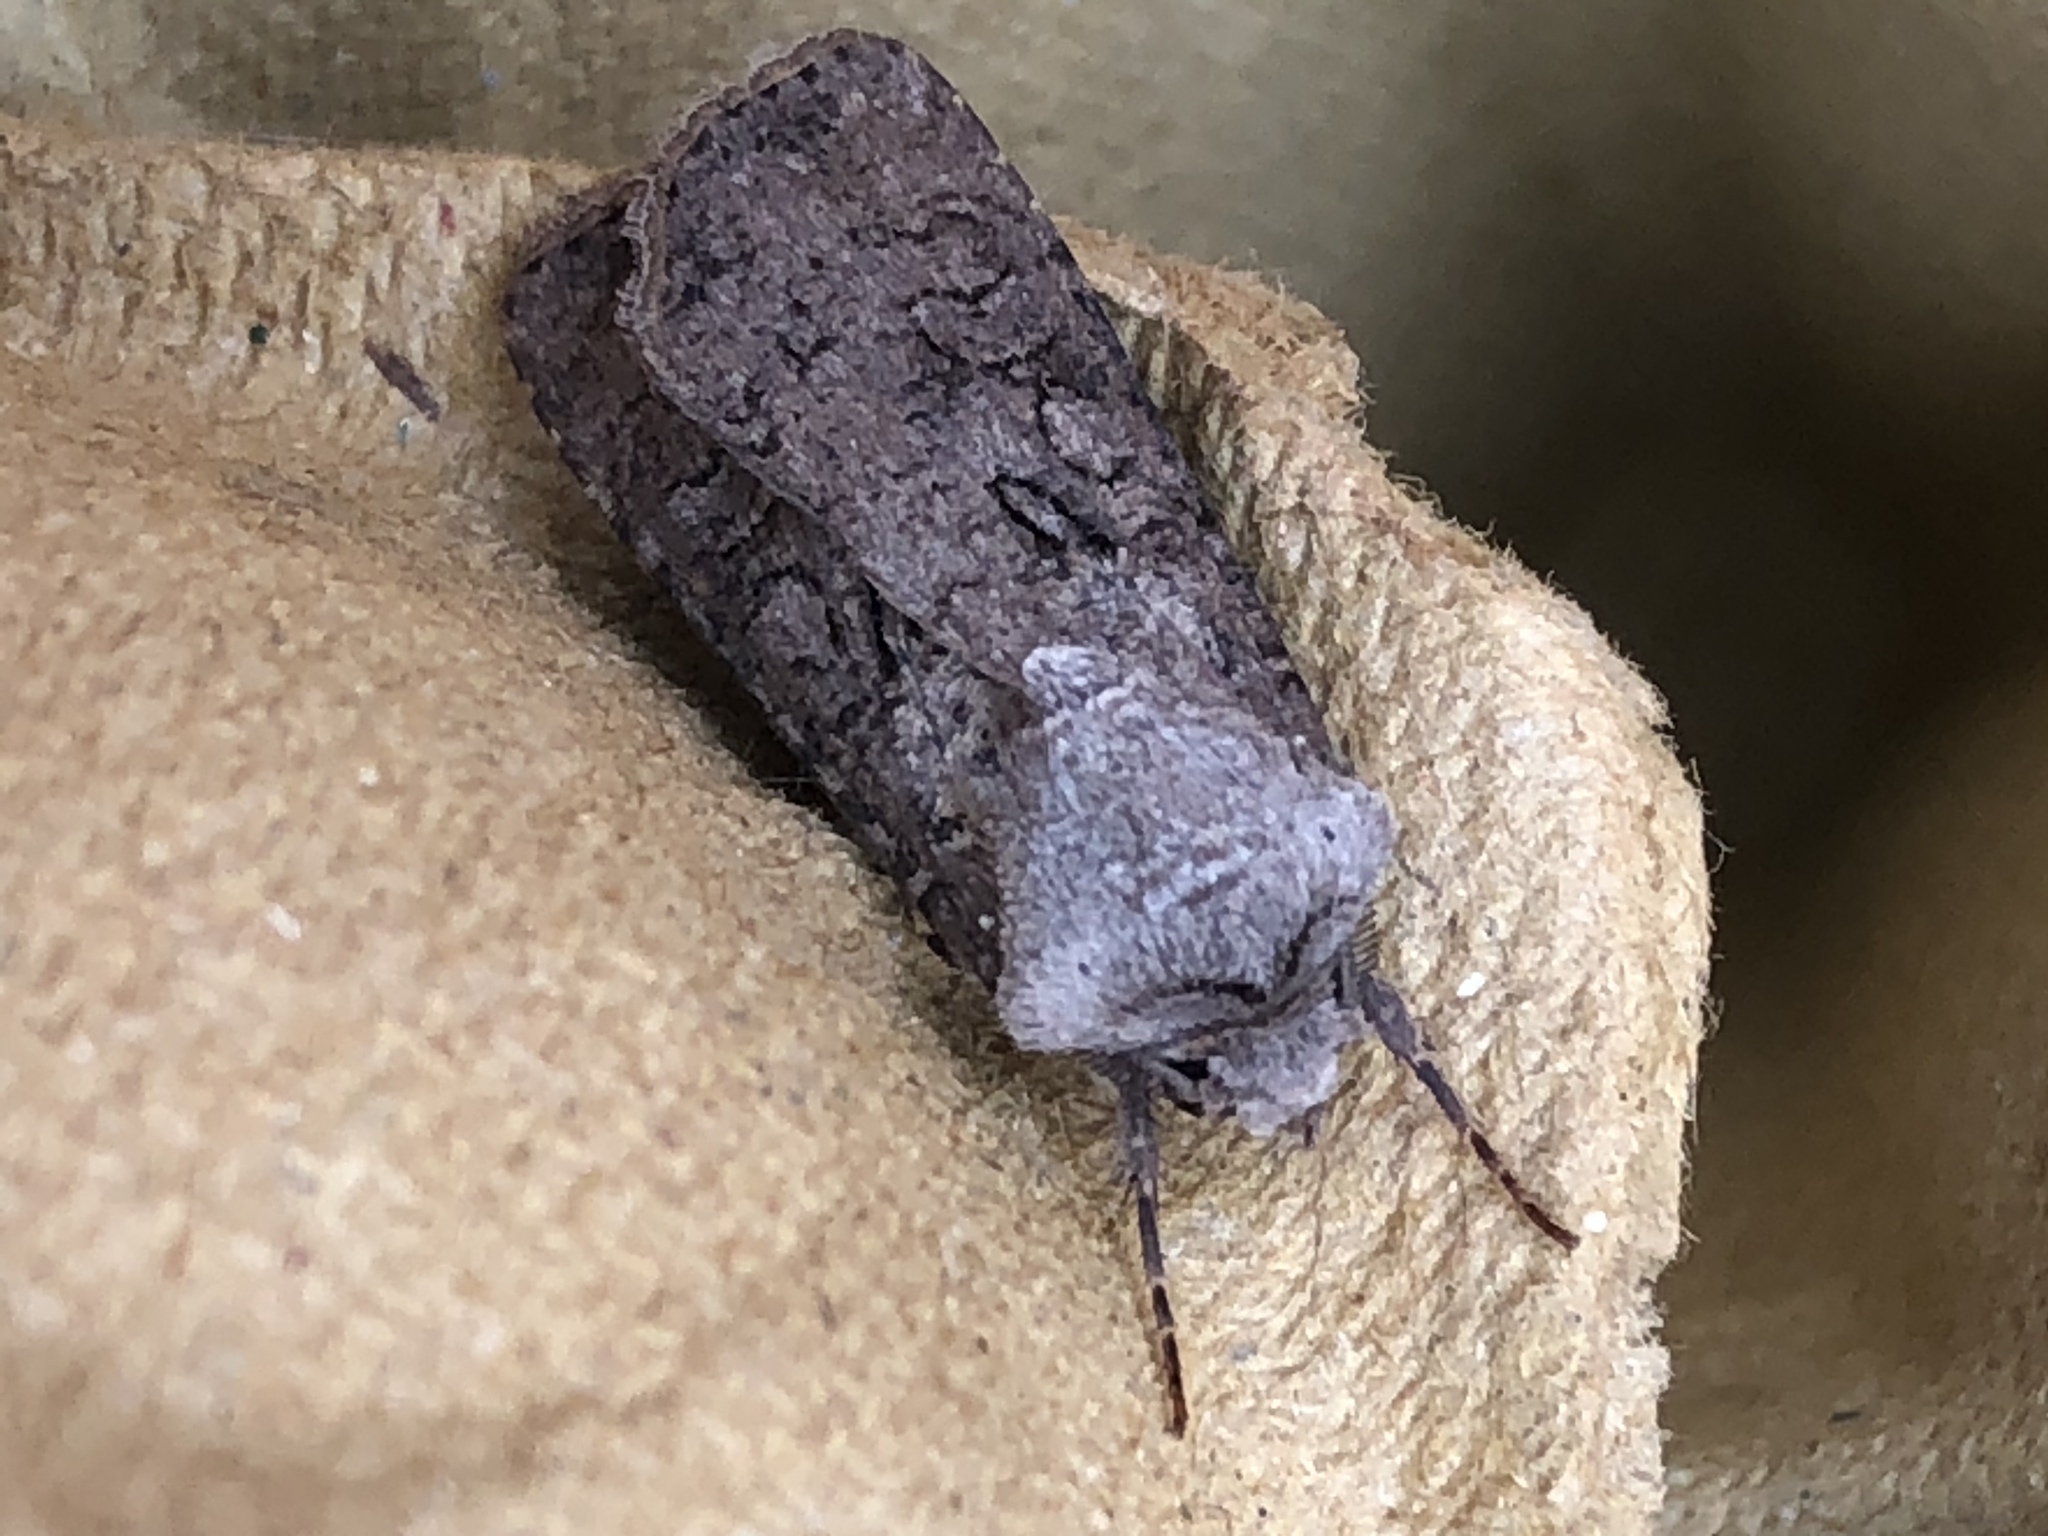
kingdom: Animalia
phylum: Arthropoda
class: Insecta
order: Lepidoptera
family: Noctuidae
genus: Agrotis
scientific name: Agrotis segetum
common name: Turnip moth
